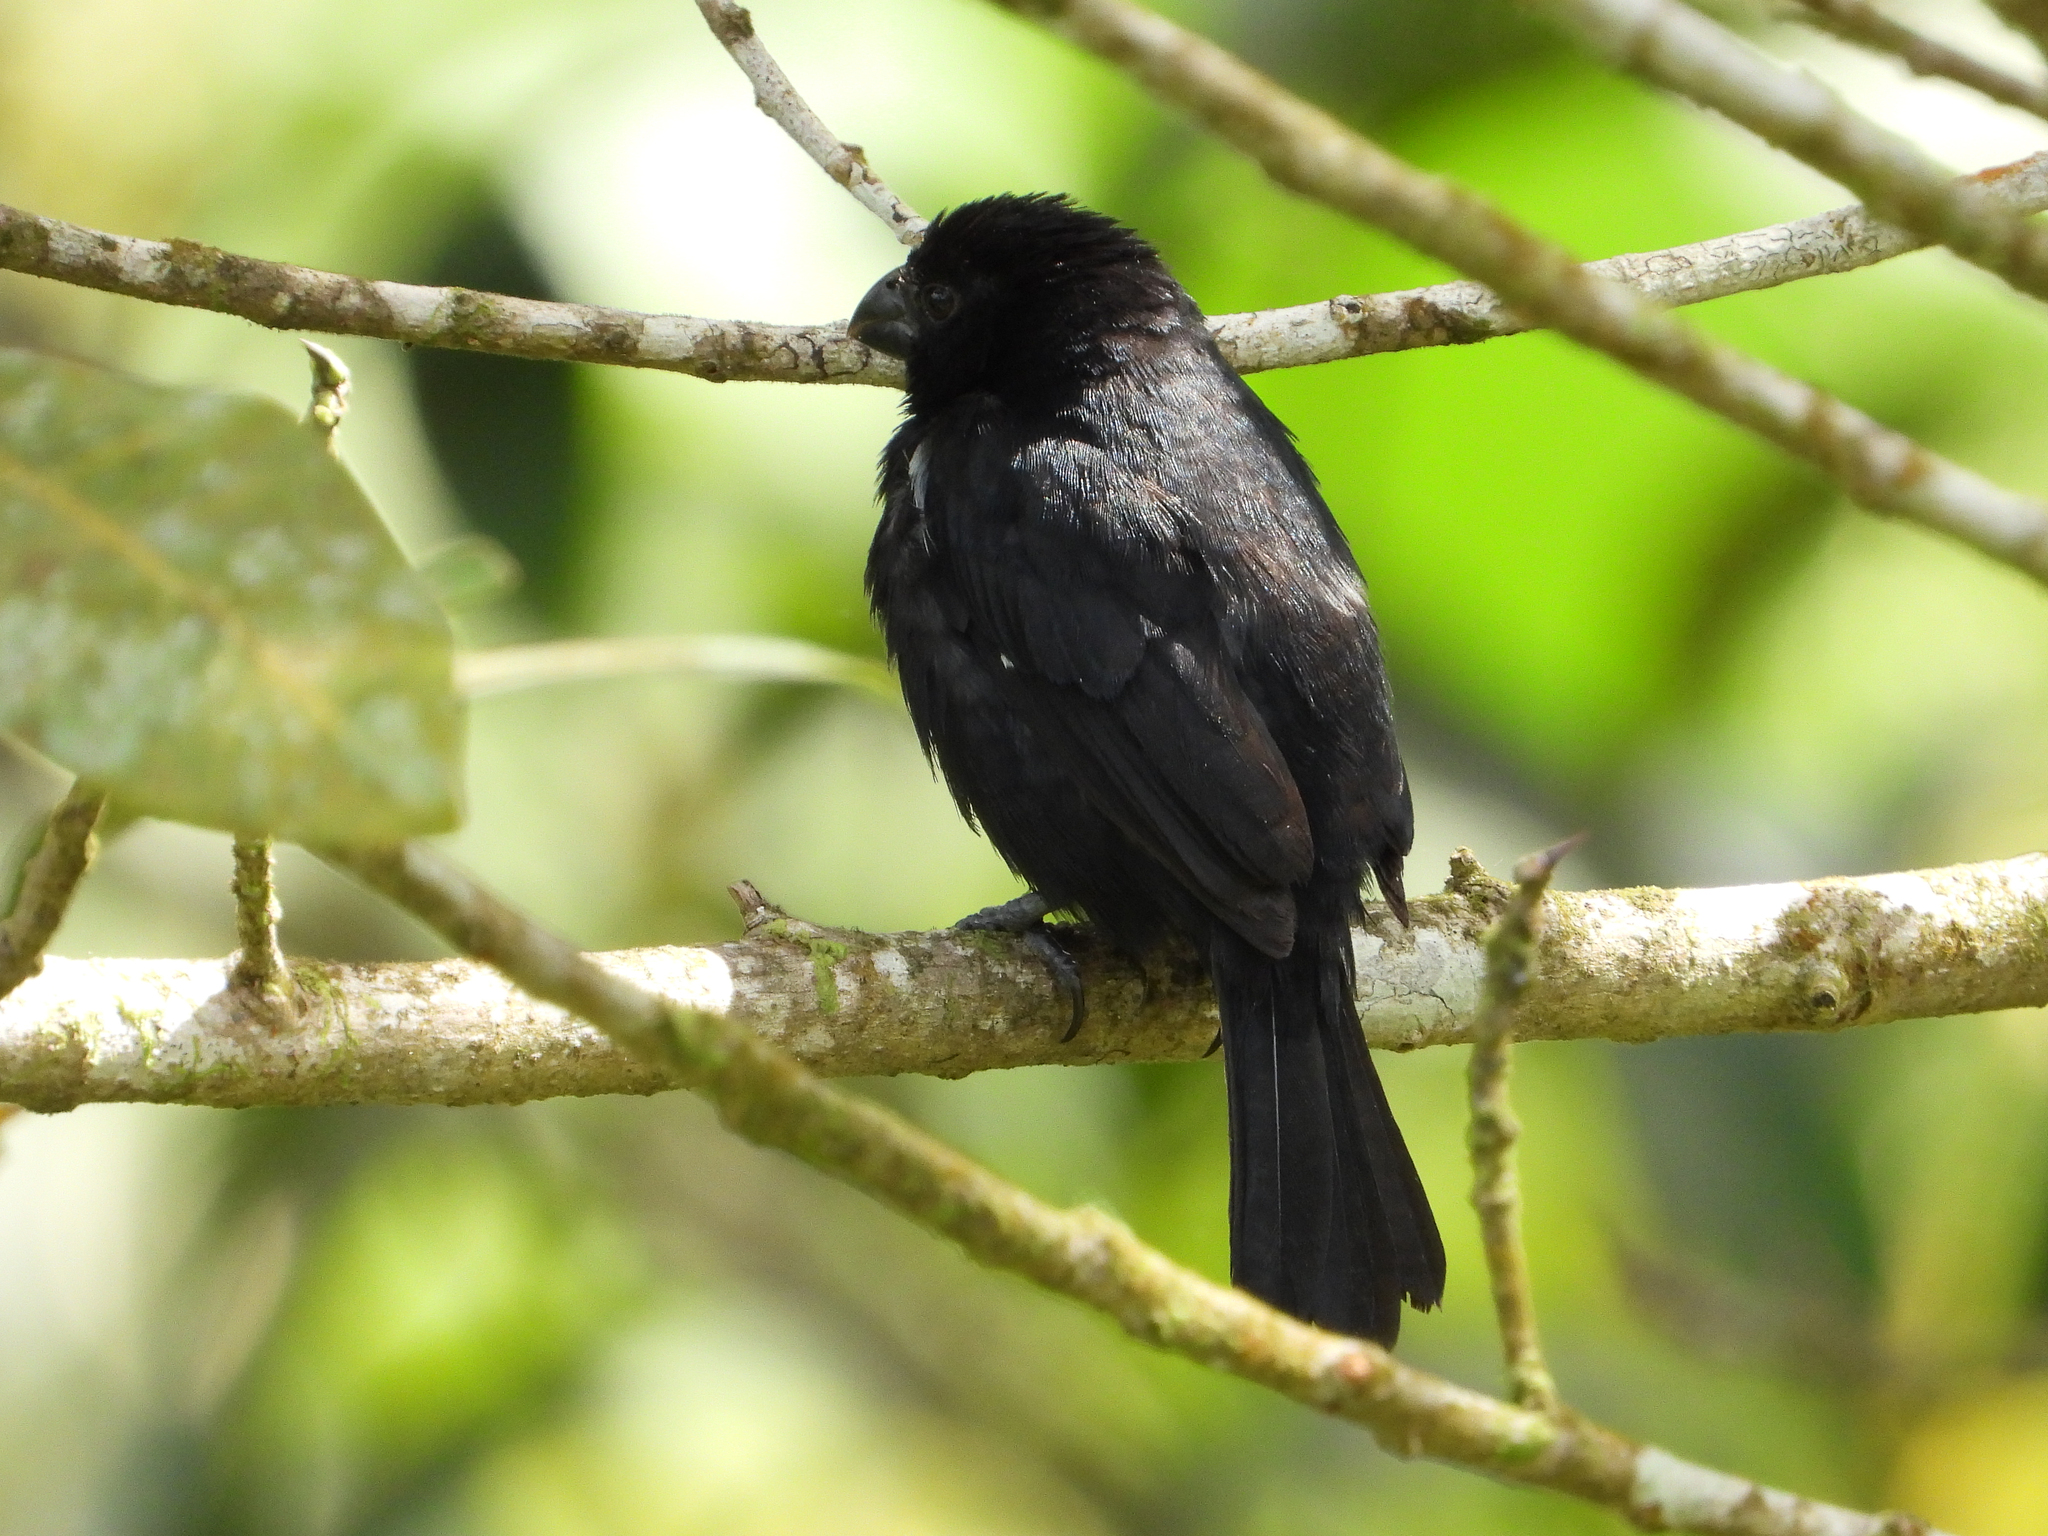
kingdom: Animalia
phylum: Chordata
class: Aves
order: Passeriformes
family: Thraupidae
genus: Sporophila
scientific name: Sporophila corvina
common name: Variable seedeater
